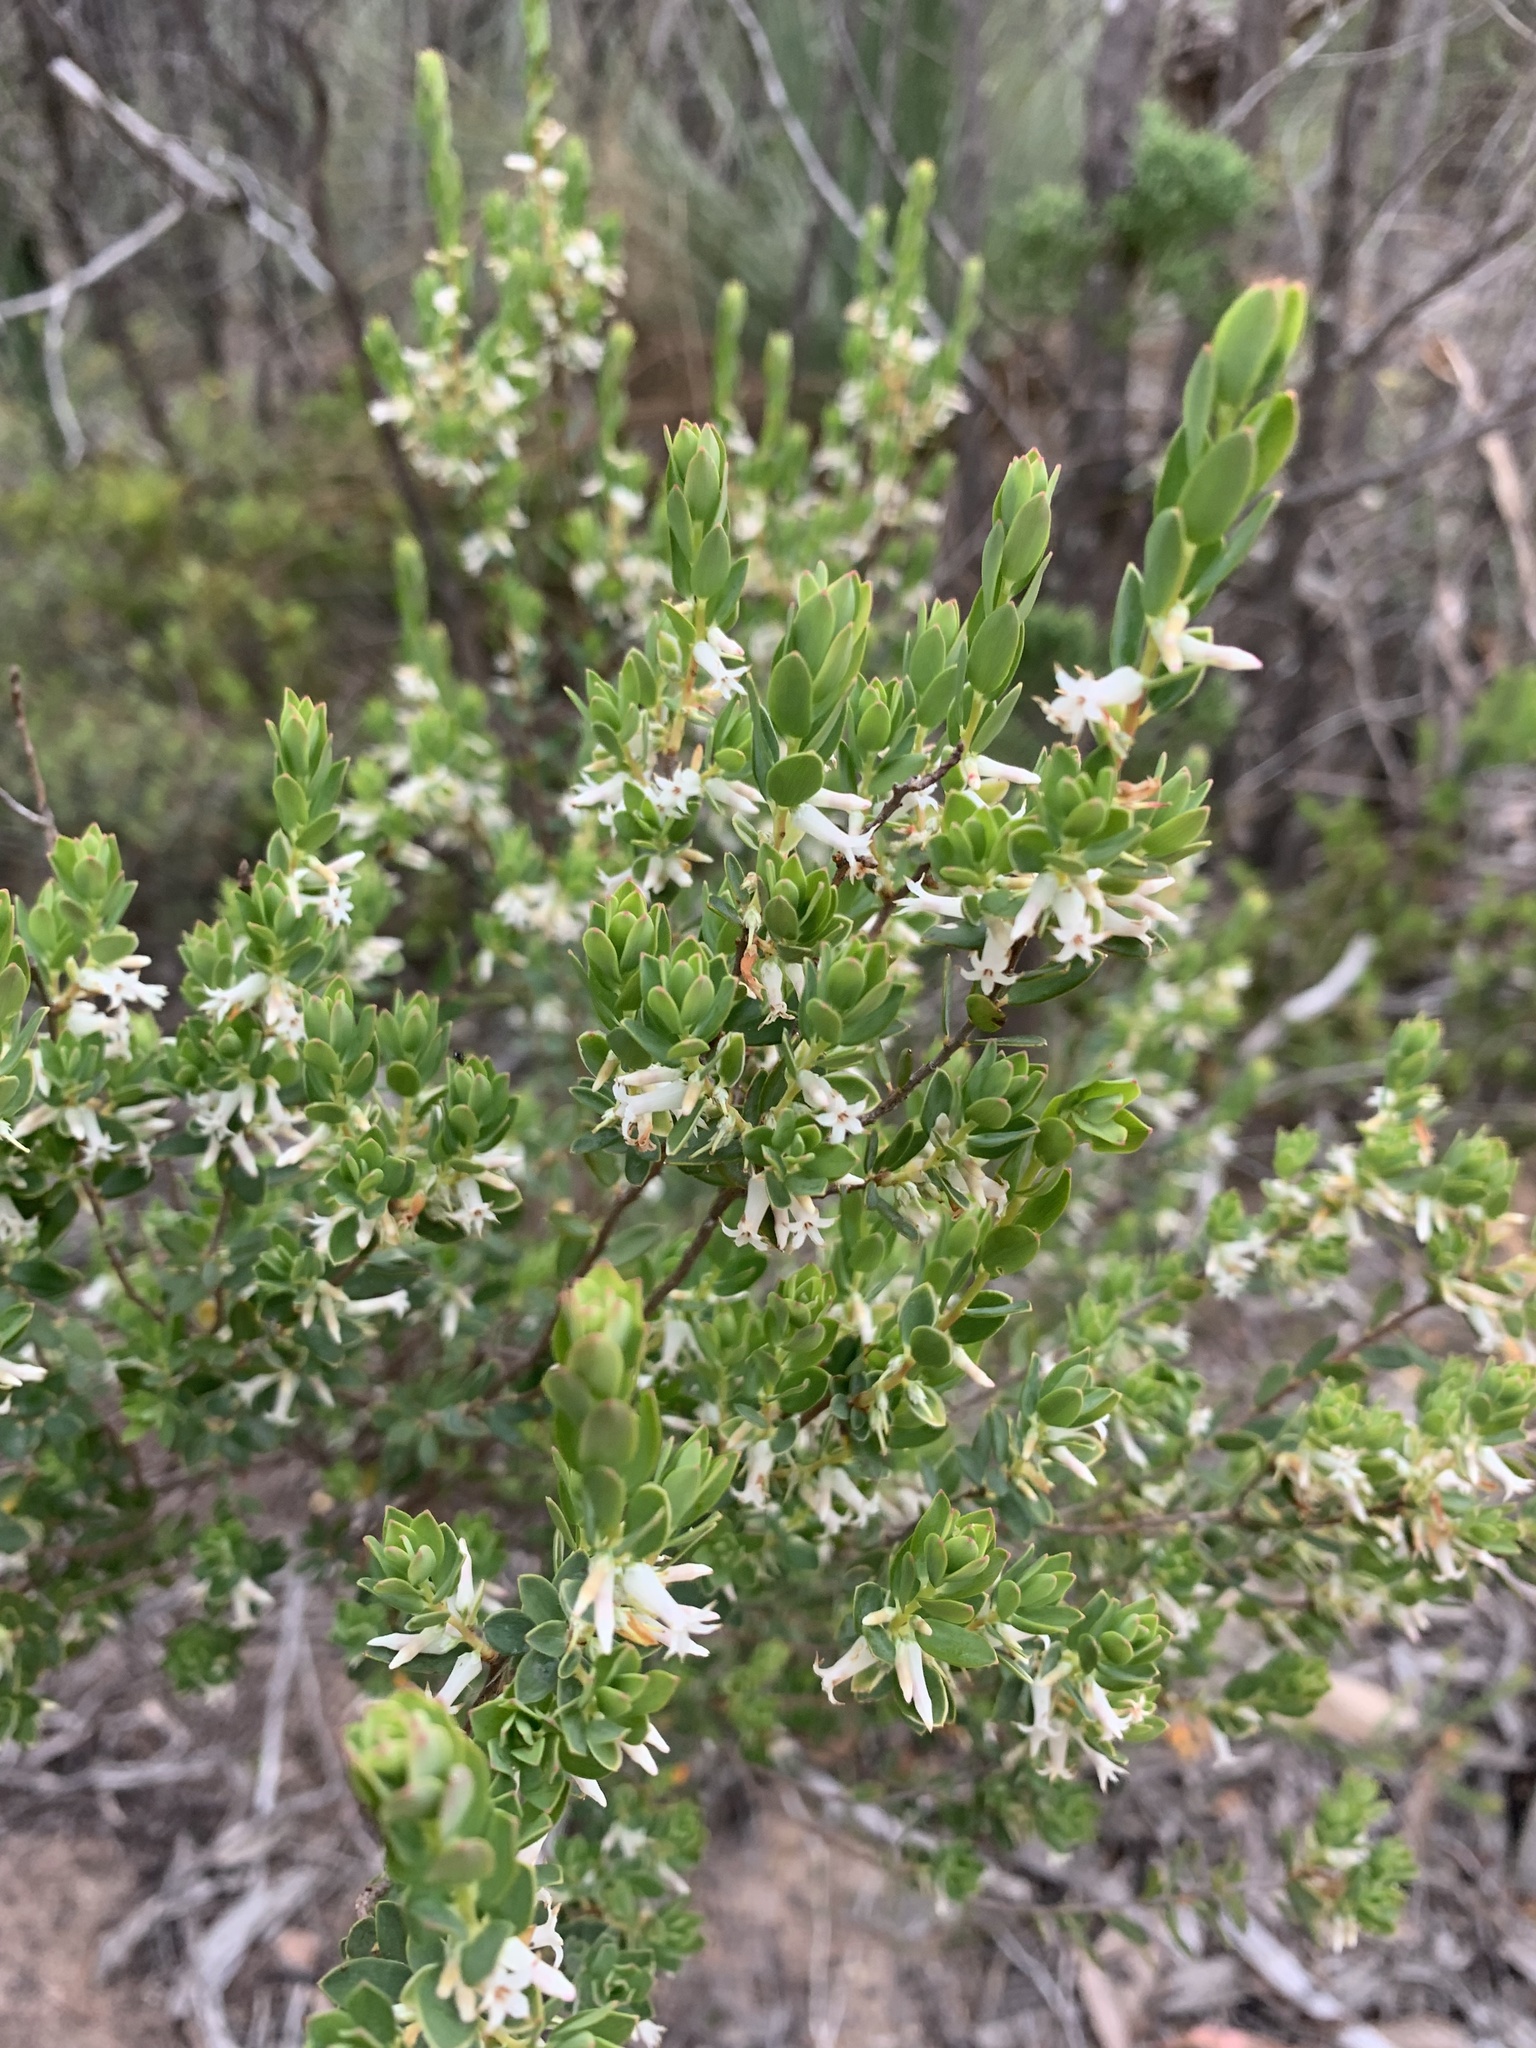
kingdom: Plantae
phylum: Tracheophyta
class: Magnoliopsida
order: Ericales
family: Ericaceae
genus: Brachyloma
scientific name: Brachyloma daphnoides
